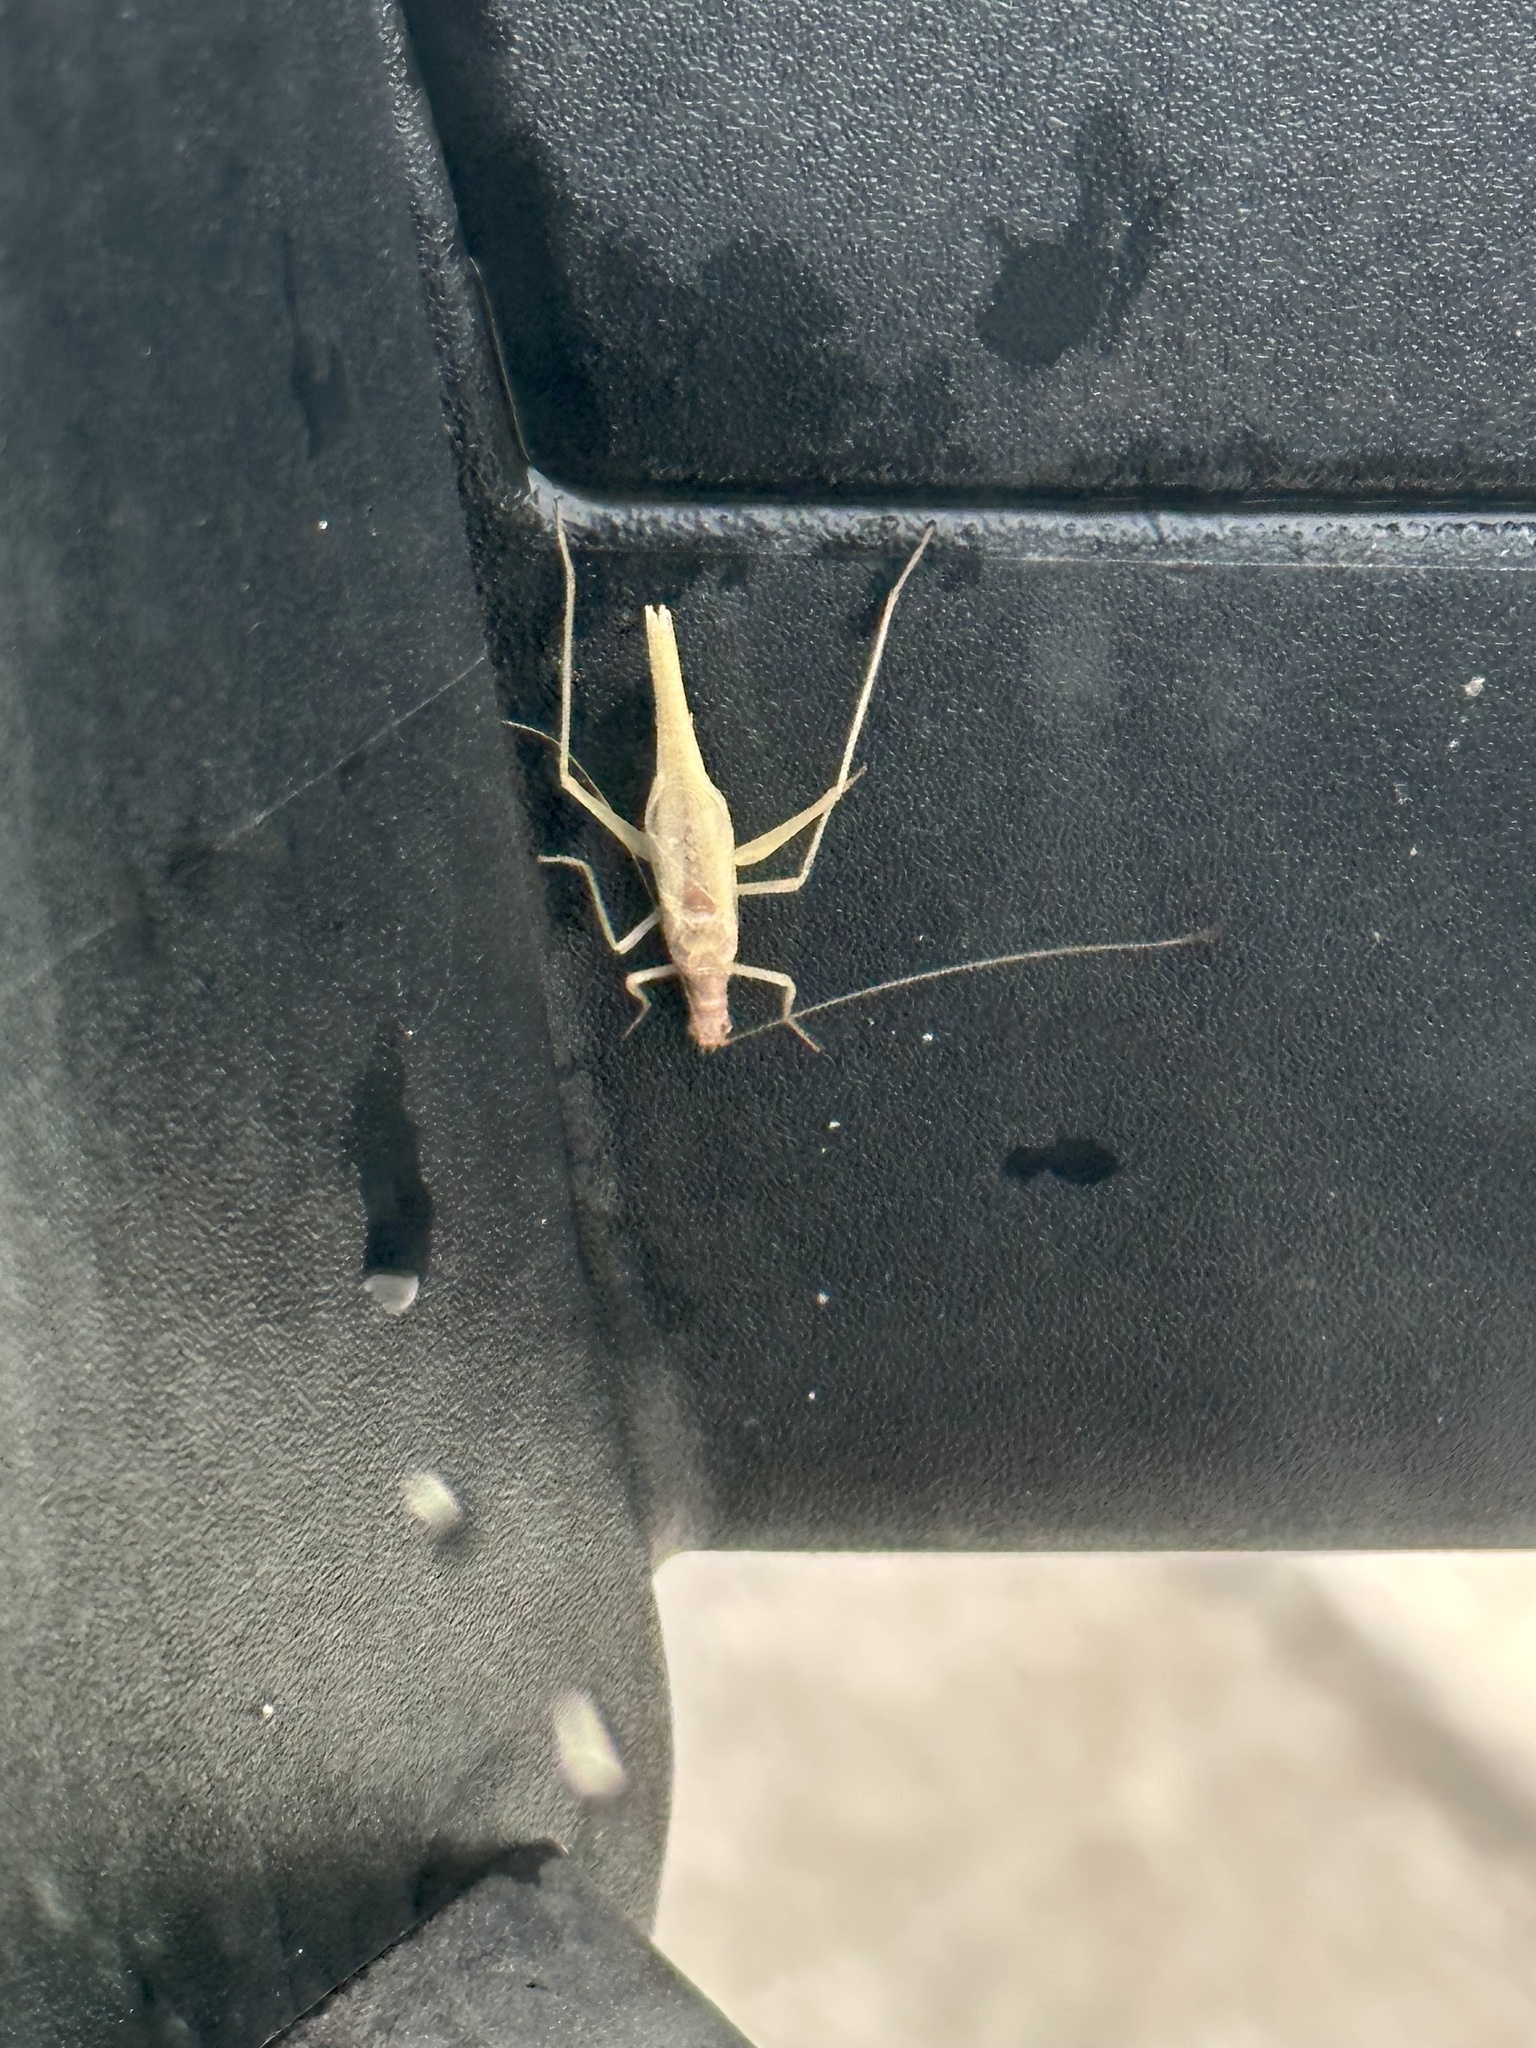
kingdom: Animalia
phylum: Arthropoda
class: Insecta
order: Orthoptera
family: Gryllidae
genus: Neoxabea
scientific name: Neoxabea bipunctata
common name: Two-spotted tree cricket
